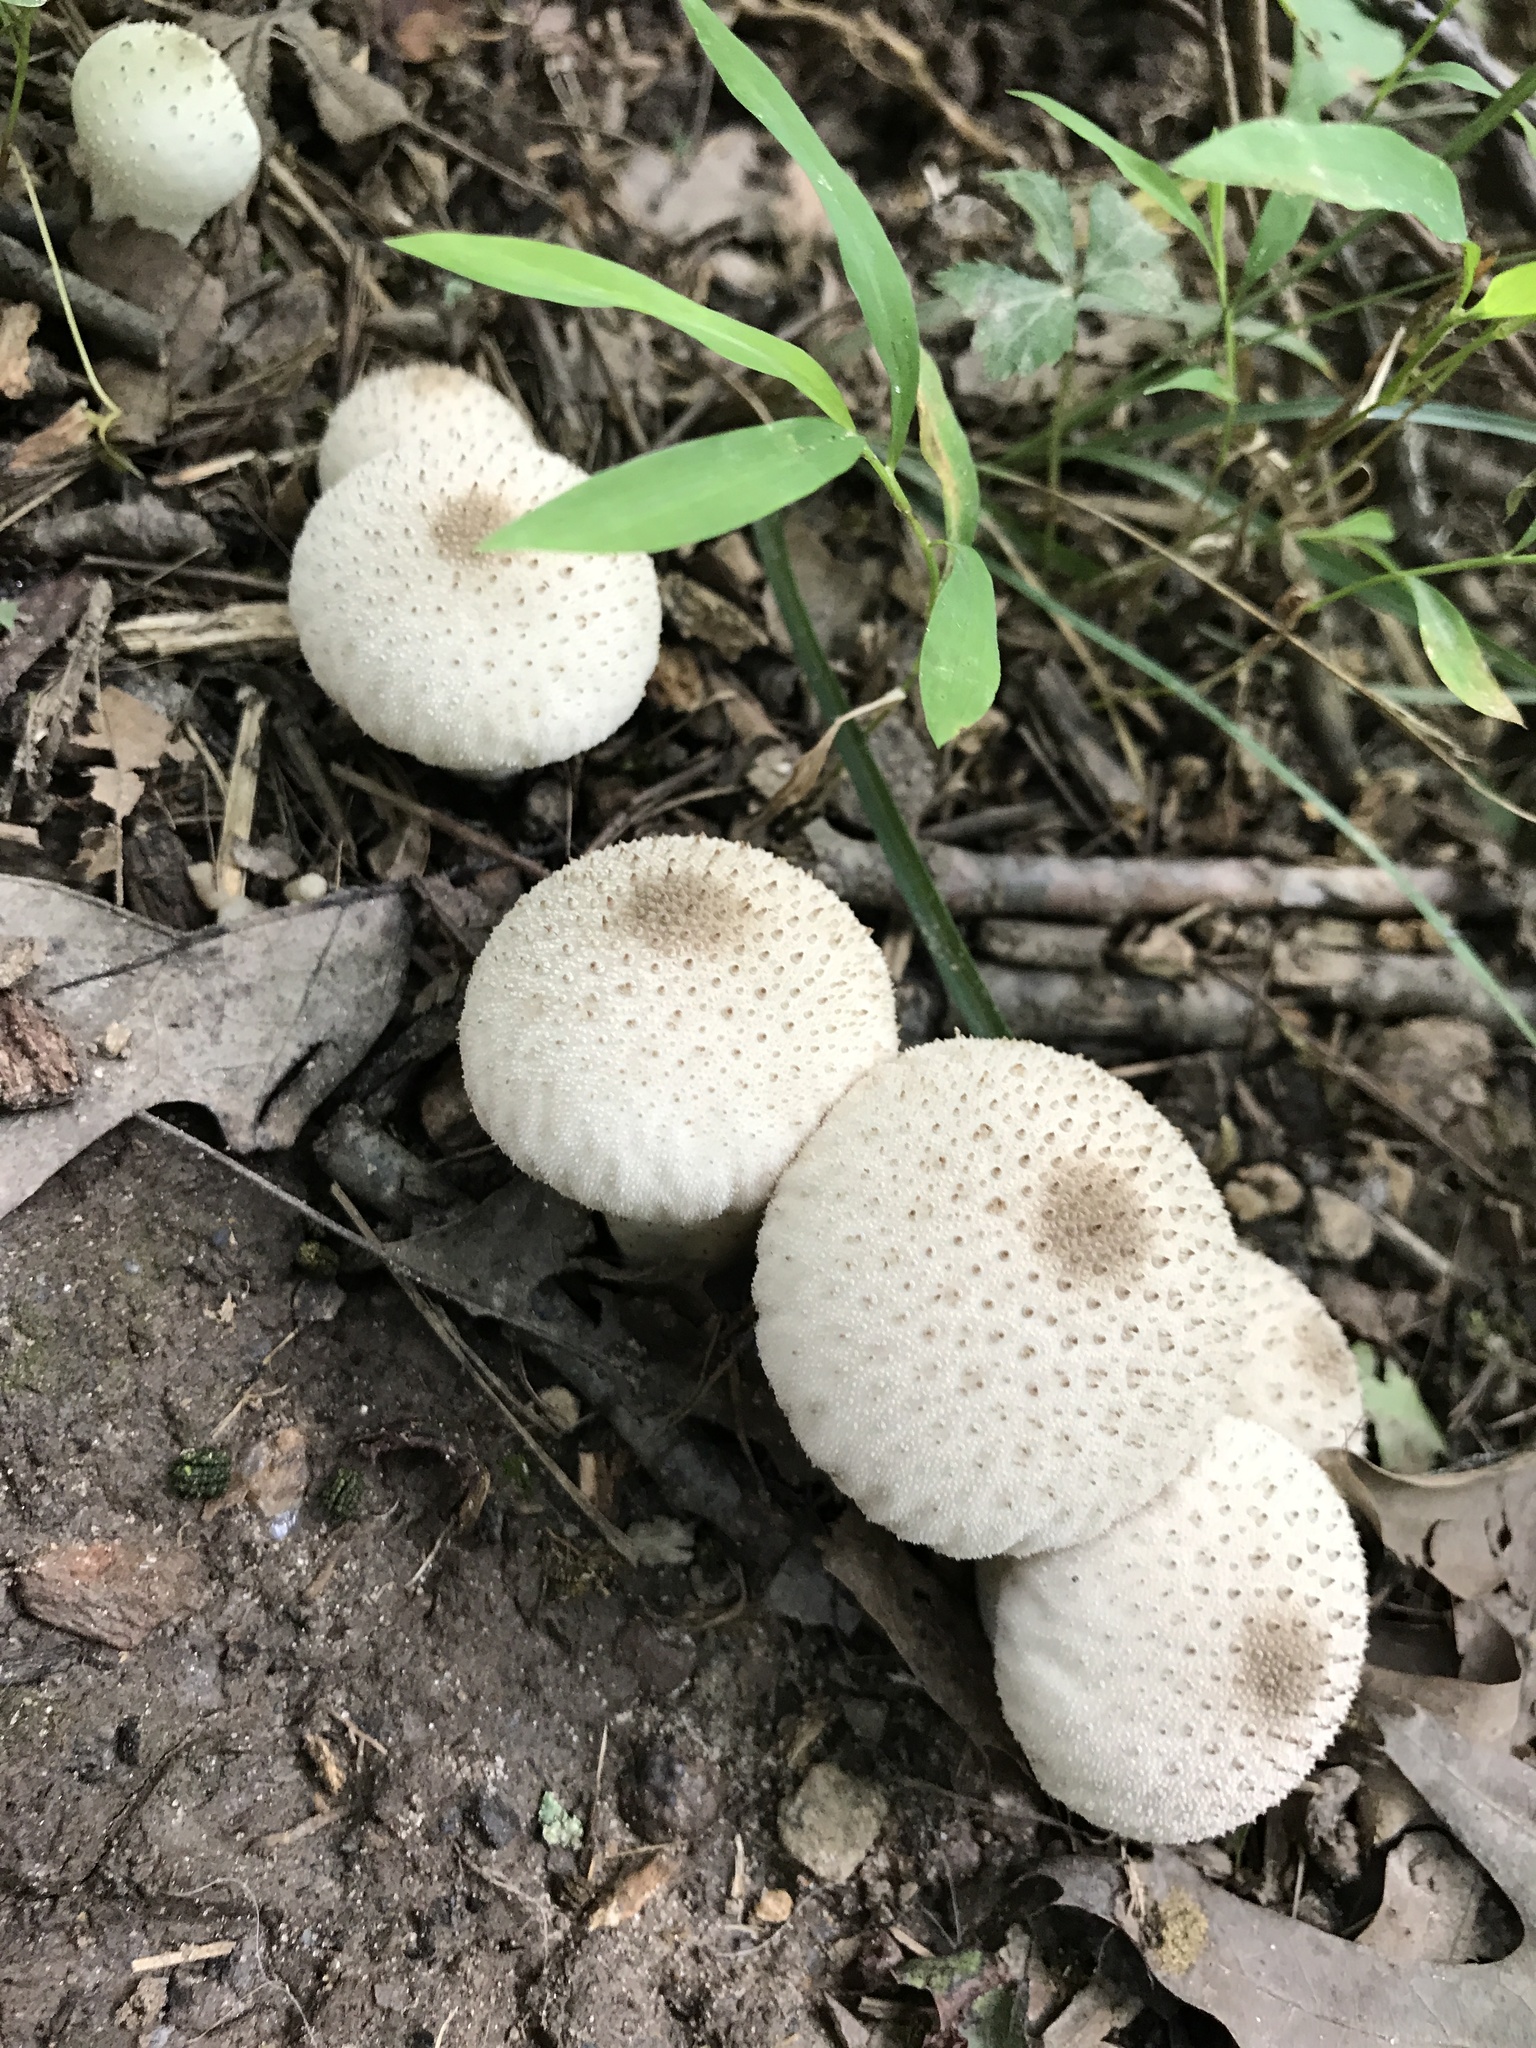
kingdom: Fungi
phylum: Basidiomycota
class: Agaricomycetes
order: Agaricales
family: Lycoperdaceae
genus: Lycoperdon
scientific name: Lycoperdon perlatum
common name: Common puffball
